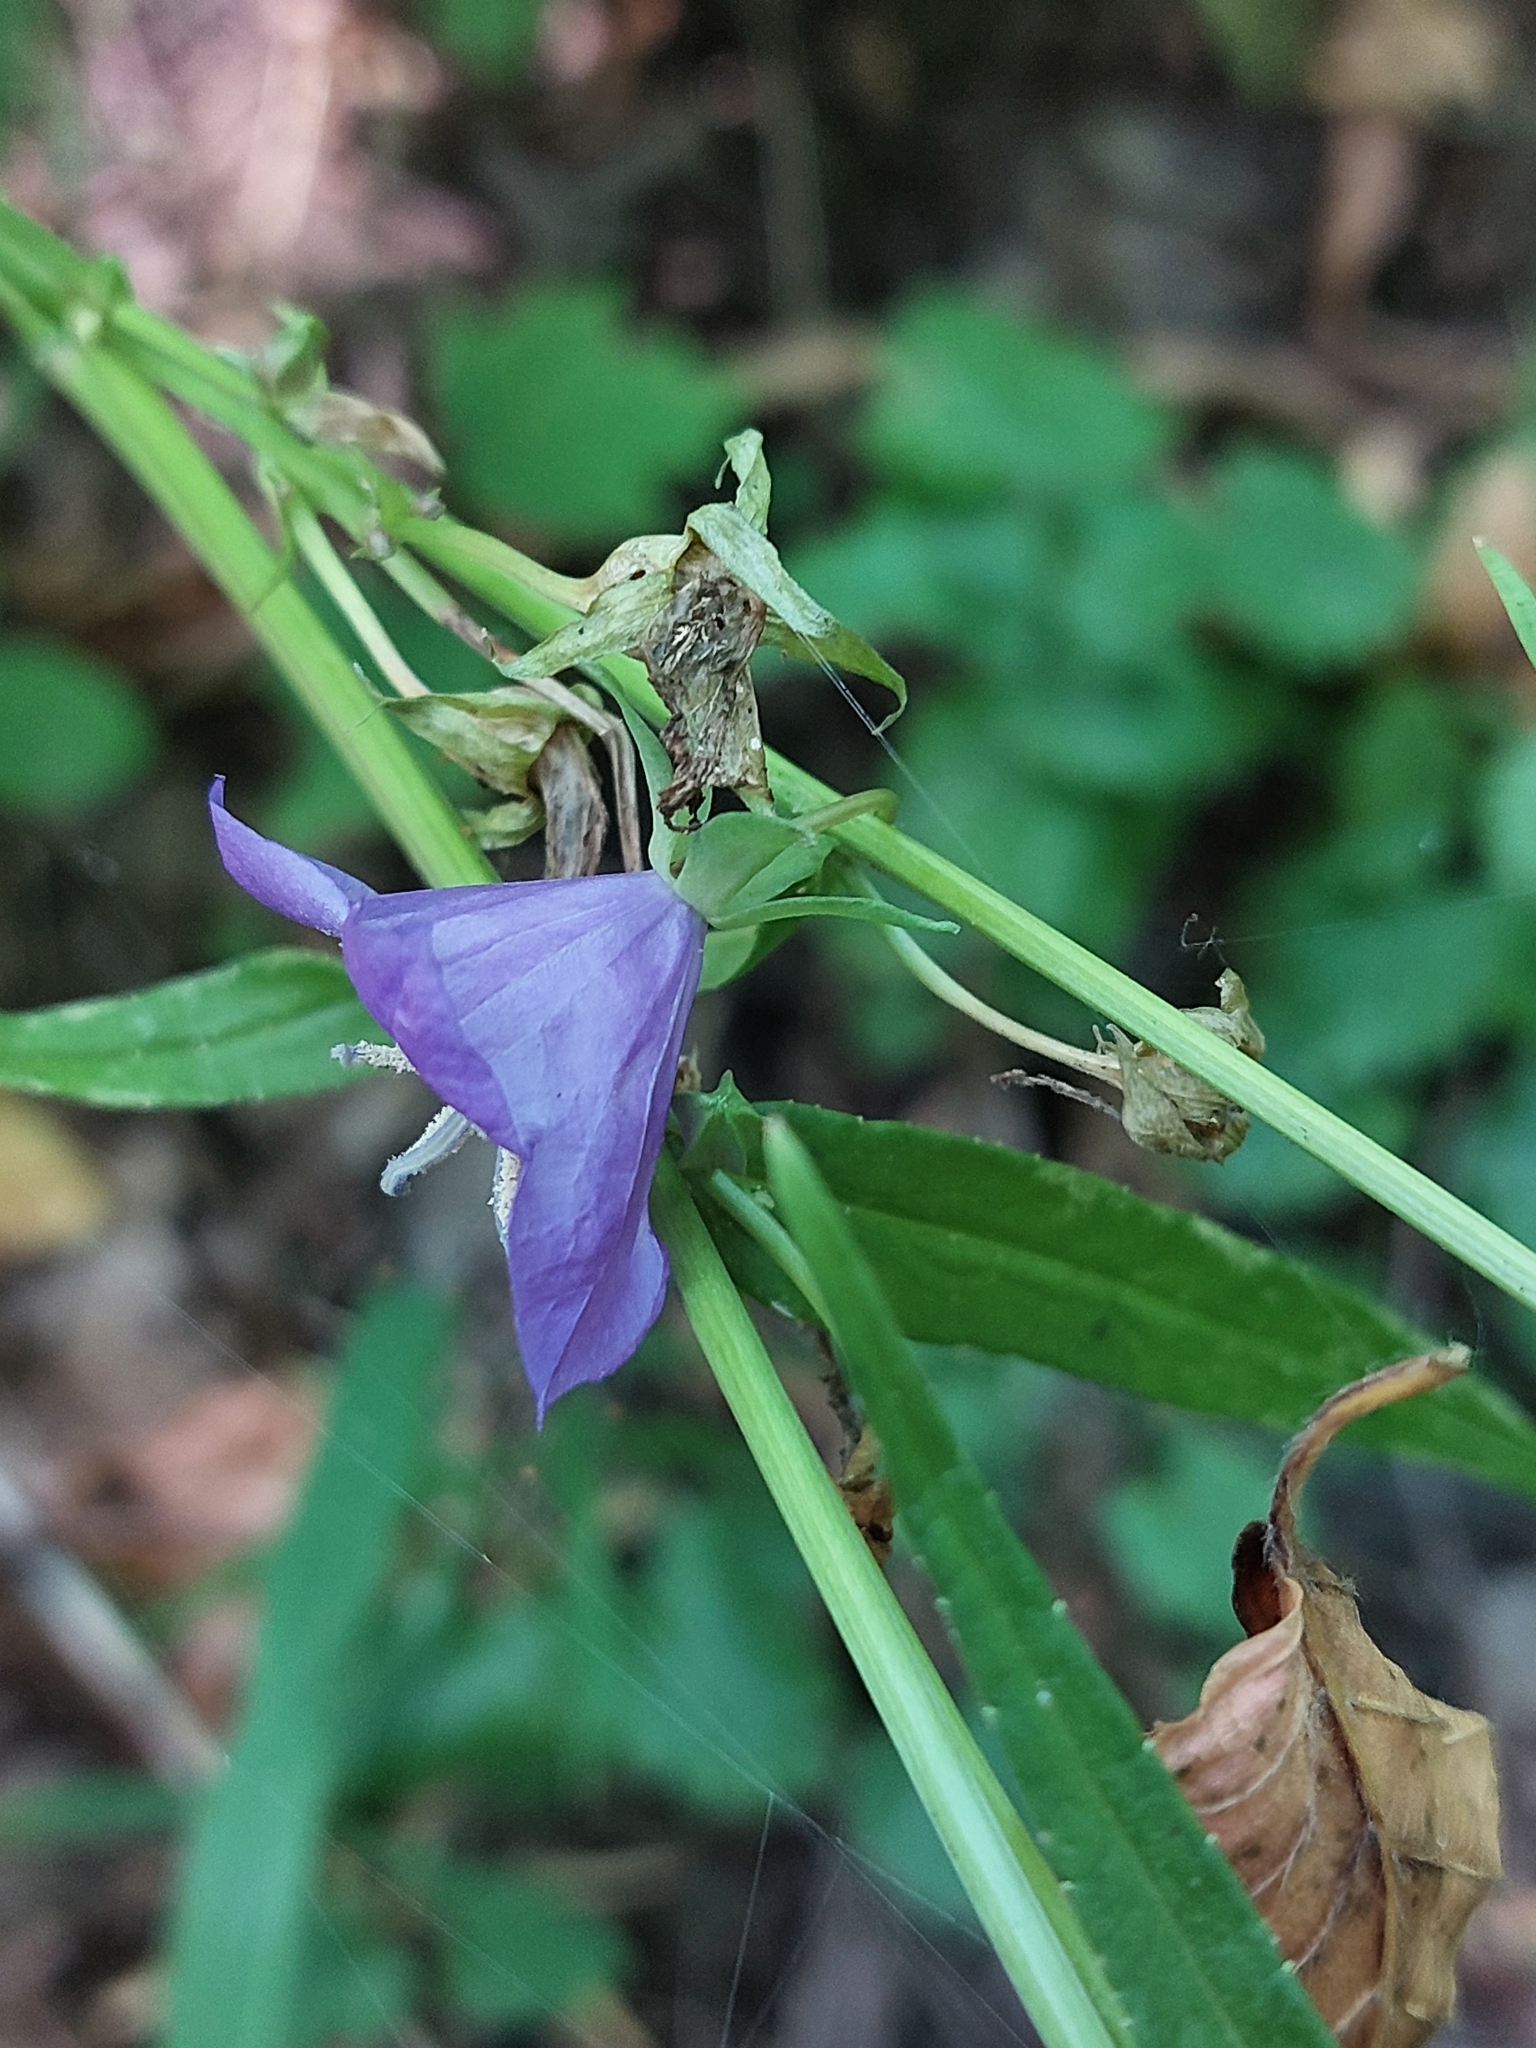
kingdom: Plantae
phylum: Tracheophyta
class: Magnoliopsida
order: Asterales
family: Campanulaceae
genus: Campanula
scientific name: Campanula persicifolia
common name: Peach-leaved bellflower
